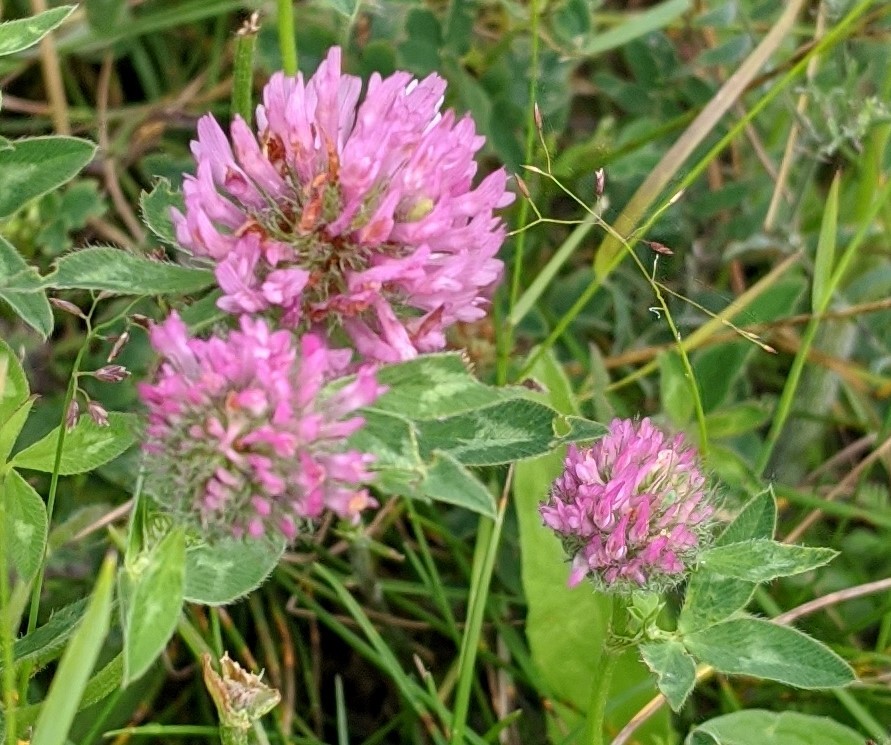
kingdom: Plantae
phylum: Tracheophyta
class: Magnoliopsida
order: Fabales
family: Fabaceae
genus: Trifolium
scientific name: Trifolium pratense
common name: Red clover
